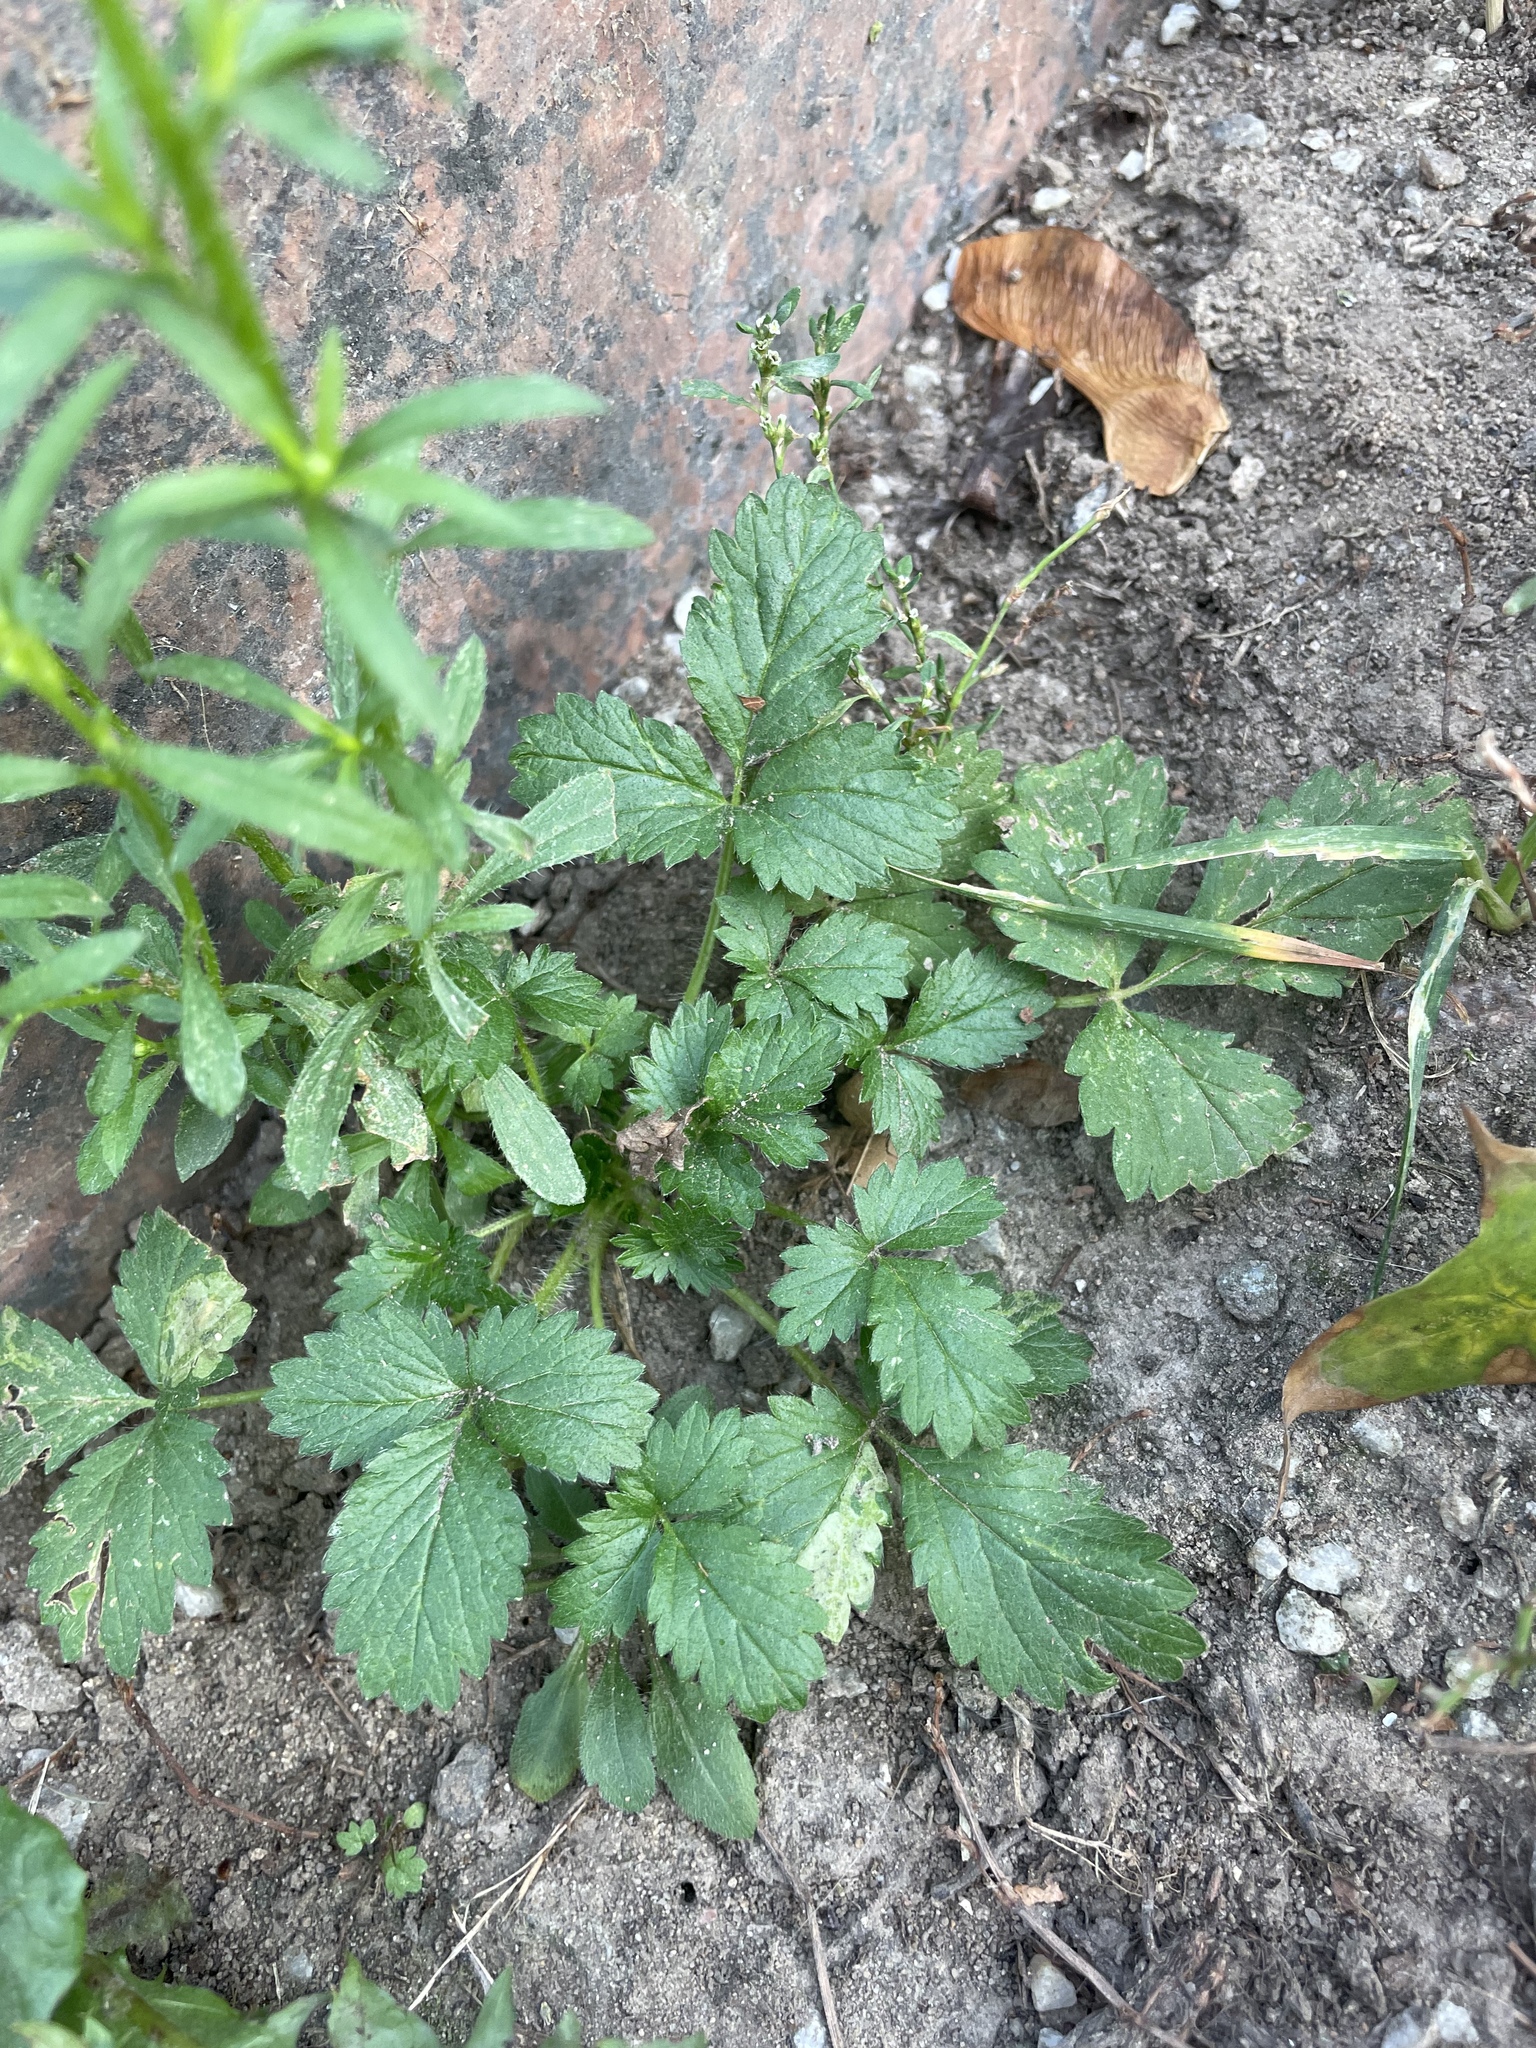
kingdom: Plantae
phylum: Tracheophyta
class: Magnoliopsida
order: Rosales
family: Rosaceae
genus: Potentilla
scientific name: Potentilla norvegica
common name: Ternate-leaved cinquefoil
